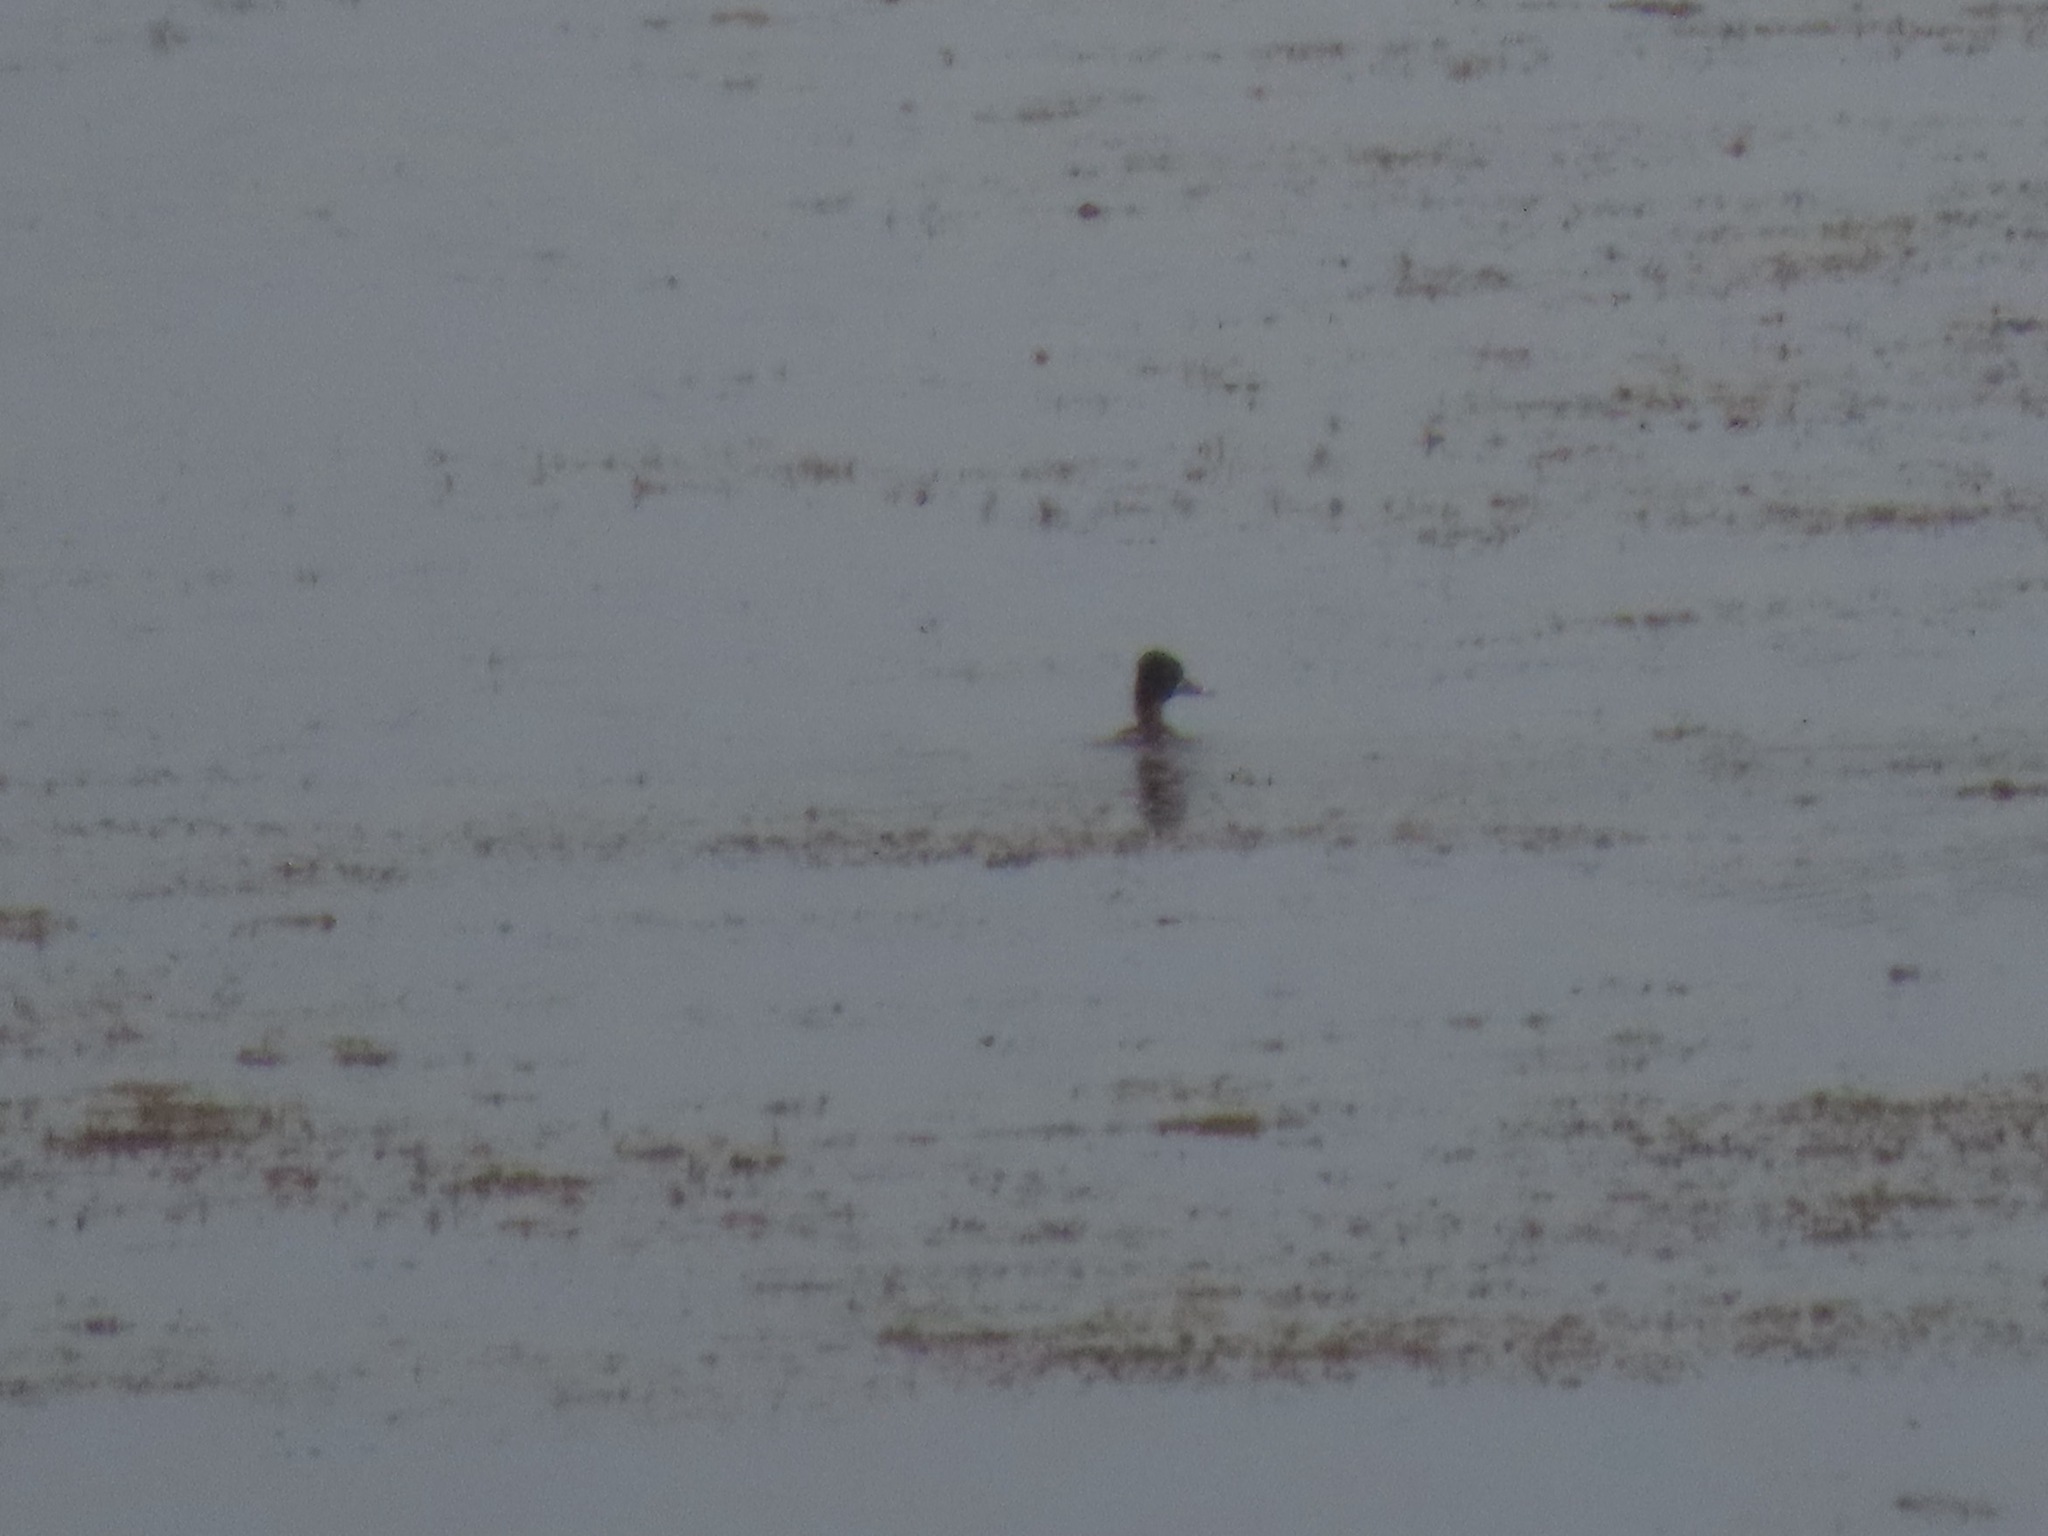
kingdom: Animalia
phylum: Chordata
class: Aves
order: Anseriformes
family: Anatidae
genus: Aythya
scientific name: Aythya collaris
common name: Ring-necked duck
